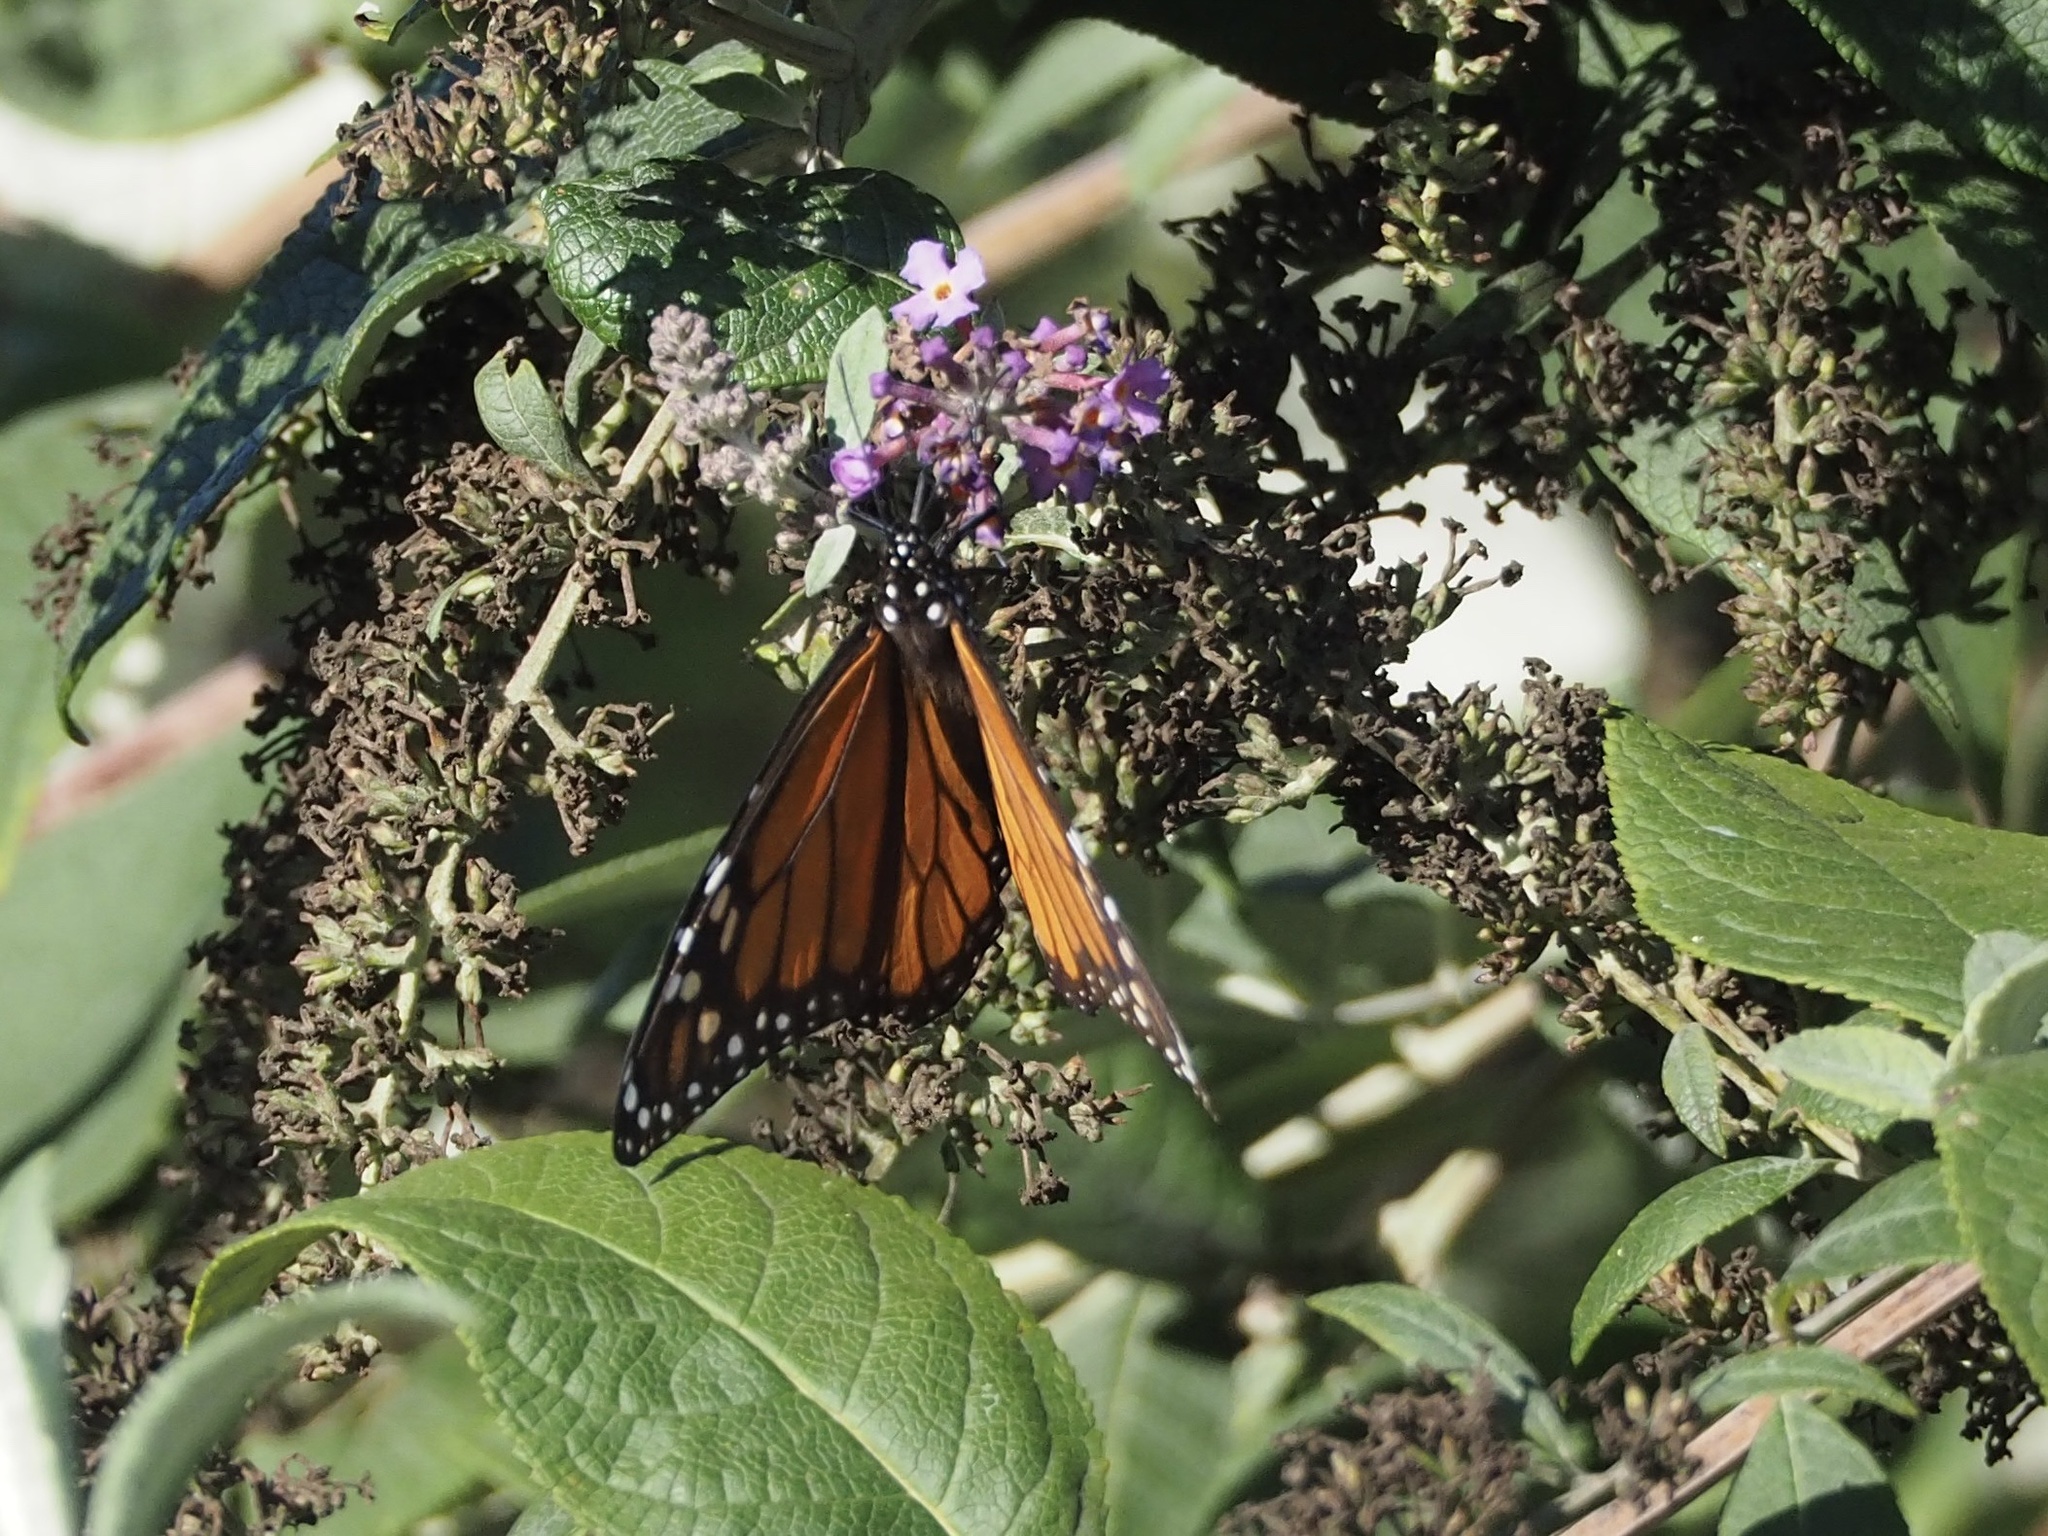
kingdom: Animalia
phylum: Arthropoda
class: Insecta
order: Lepidoptera
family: Nymphalidae
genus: Danaus
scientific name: Danaus plexippus
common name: Monarch
